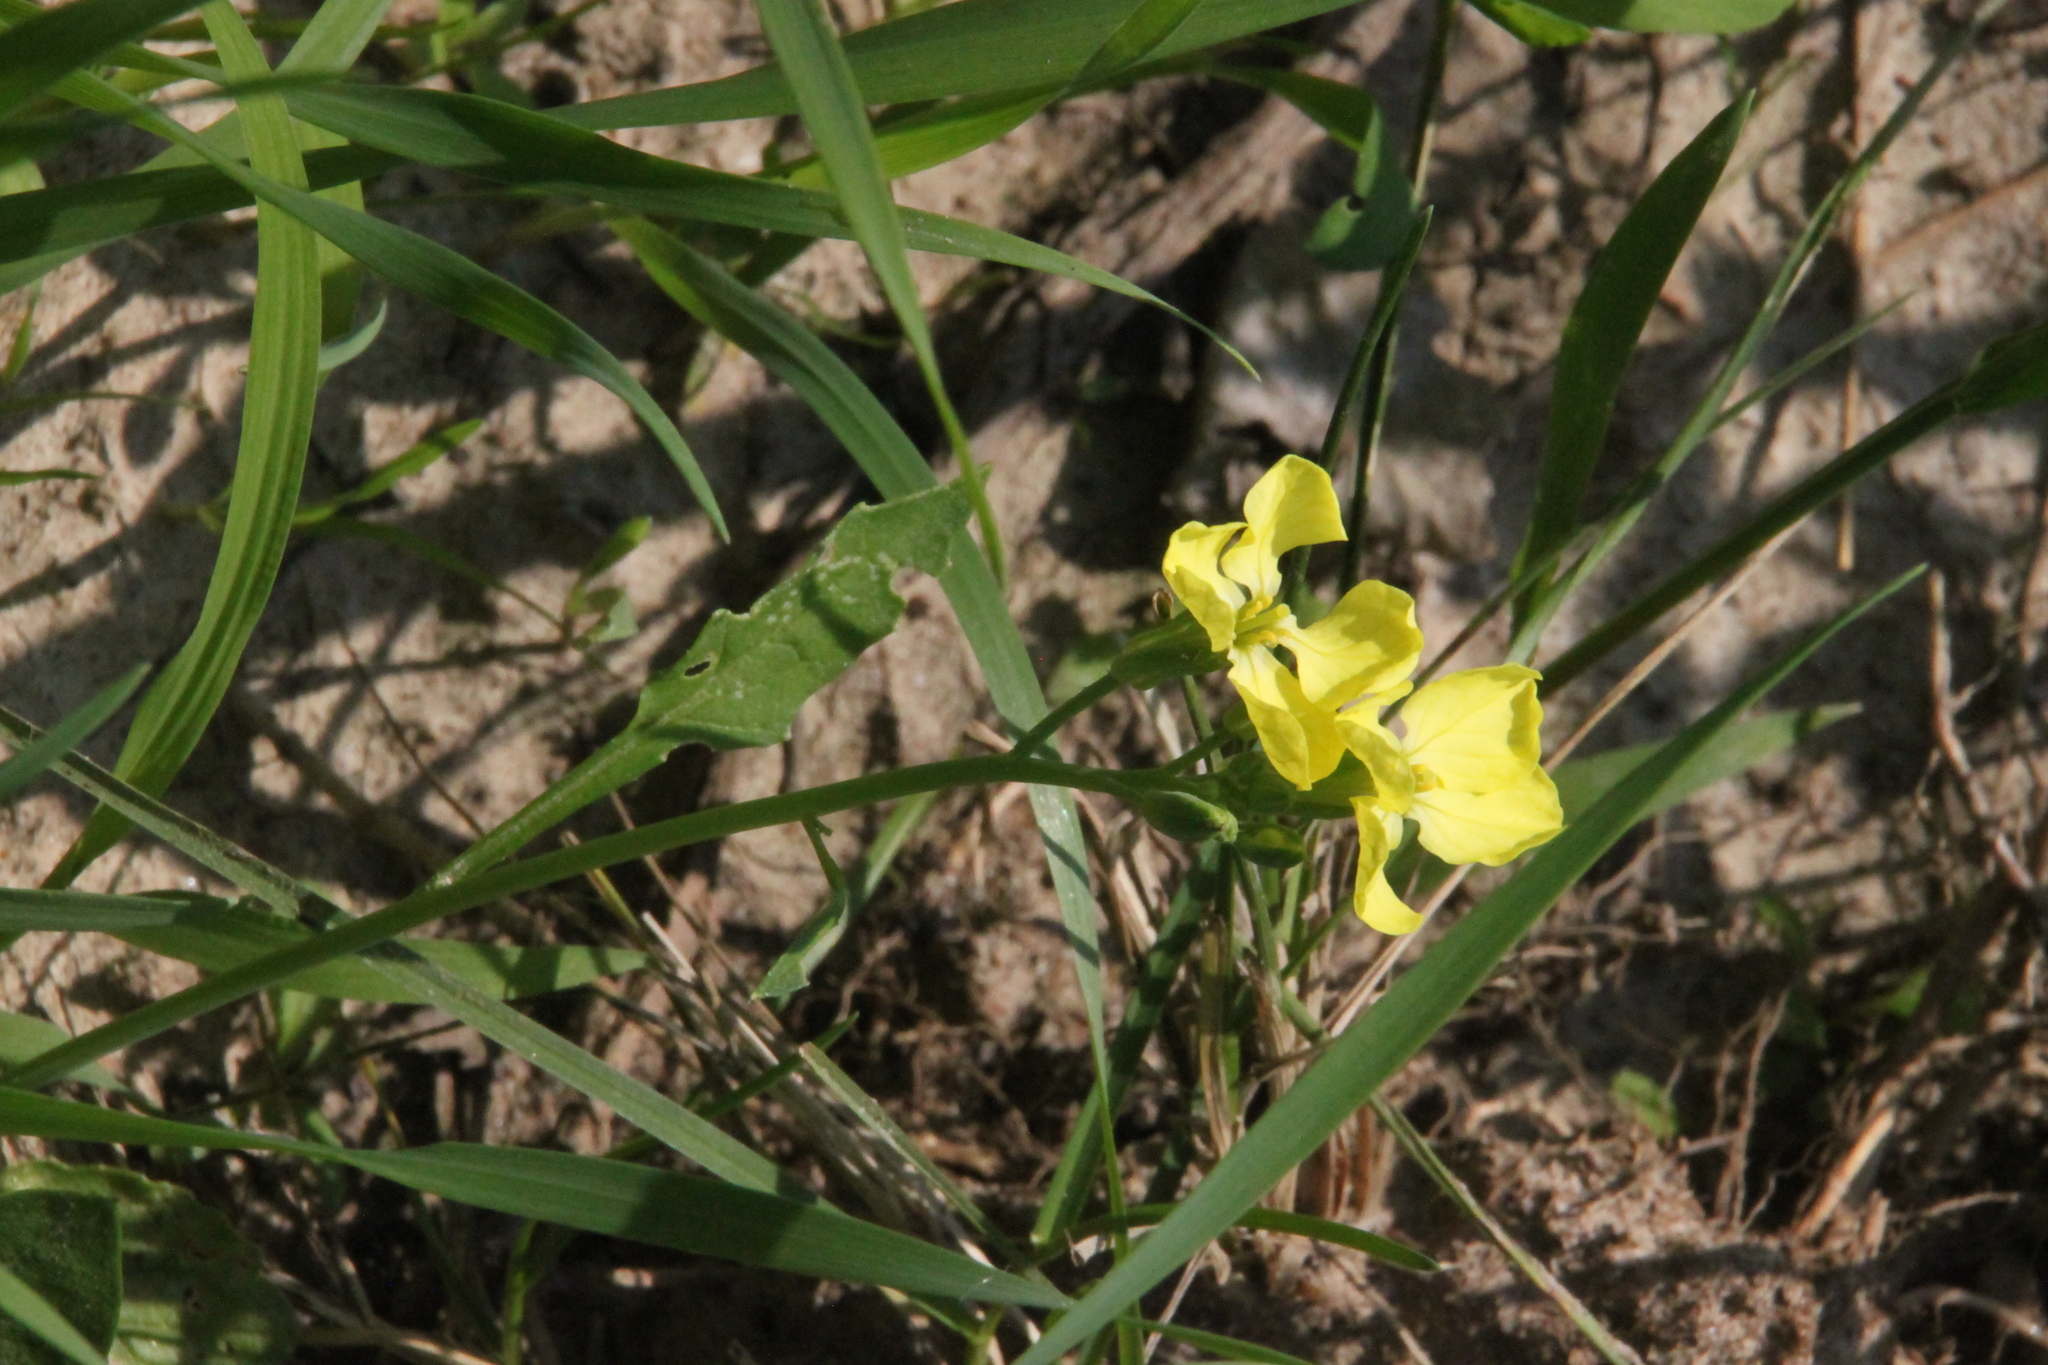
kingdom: Plantae
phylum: Tracheophyta
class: Magnoliopsida
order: Brassicales
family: Brassicaceae
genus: Raphanus
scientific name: Raphanus raphanistrum
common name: Wild radish
